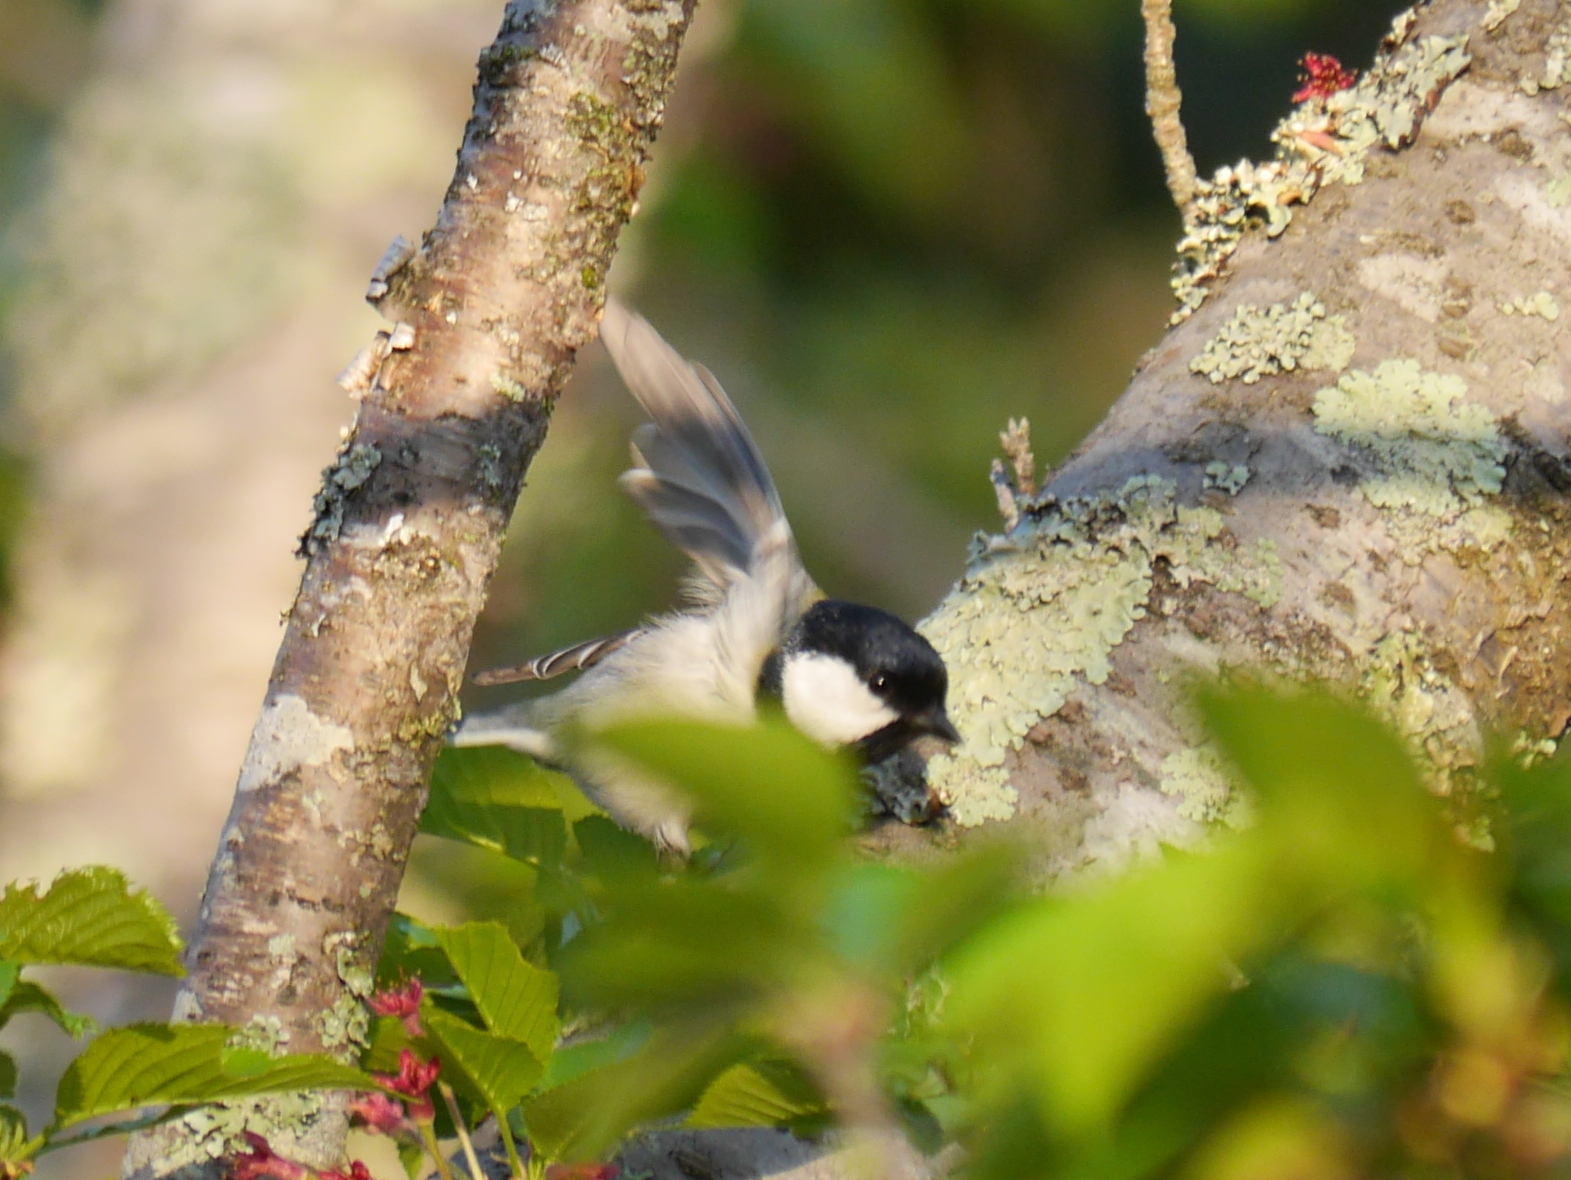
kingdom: Animalia
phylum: Chordata
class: Aves
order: Passeriformes
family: Paridae
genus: Parus
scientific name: Parus minor
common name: Japanese tit
